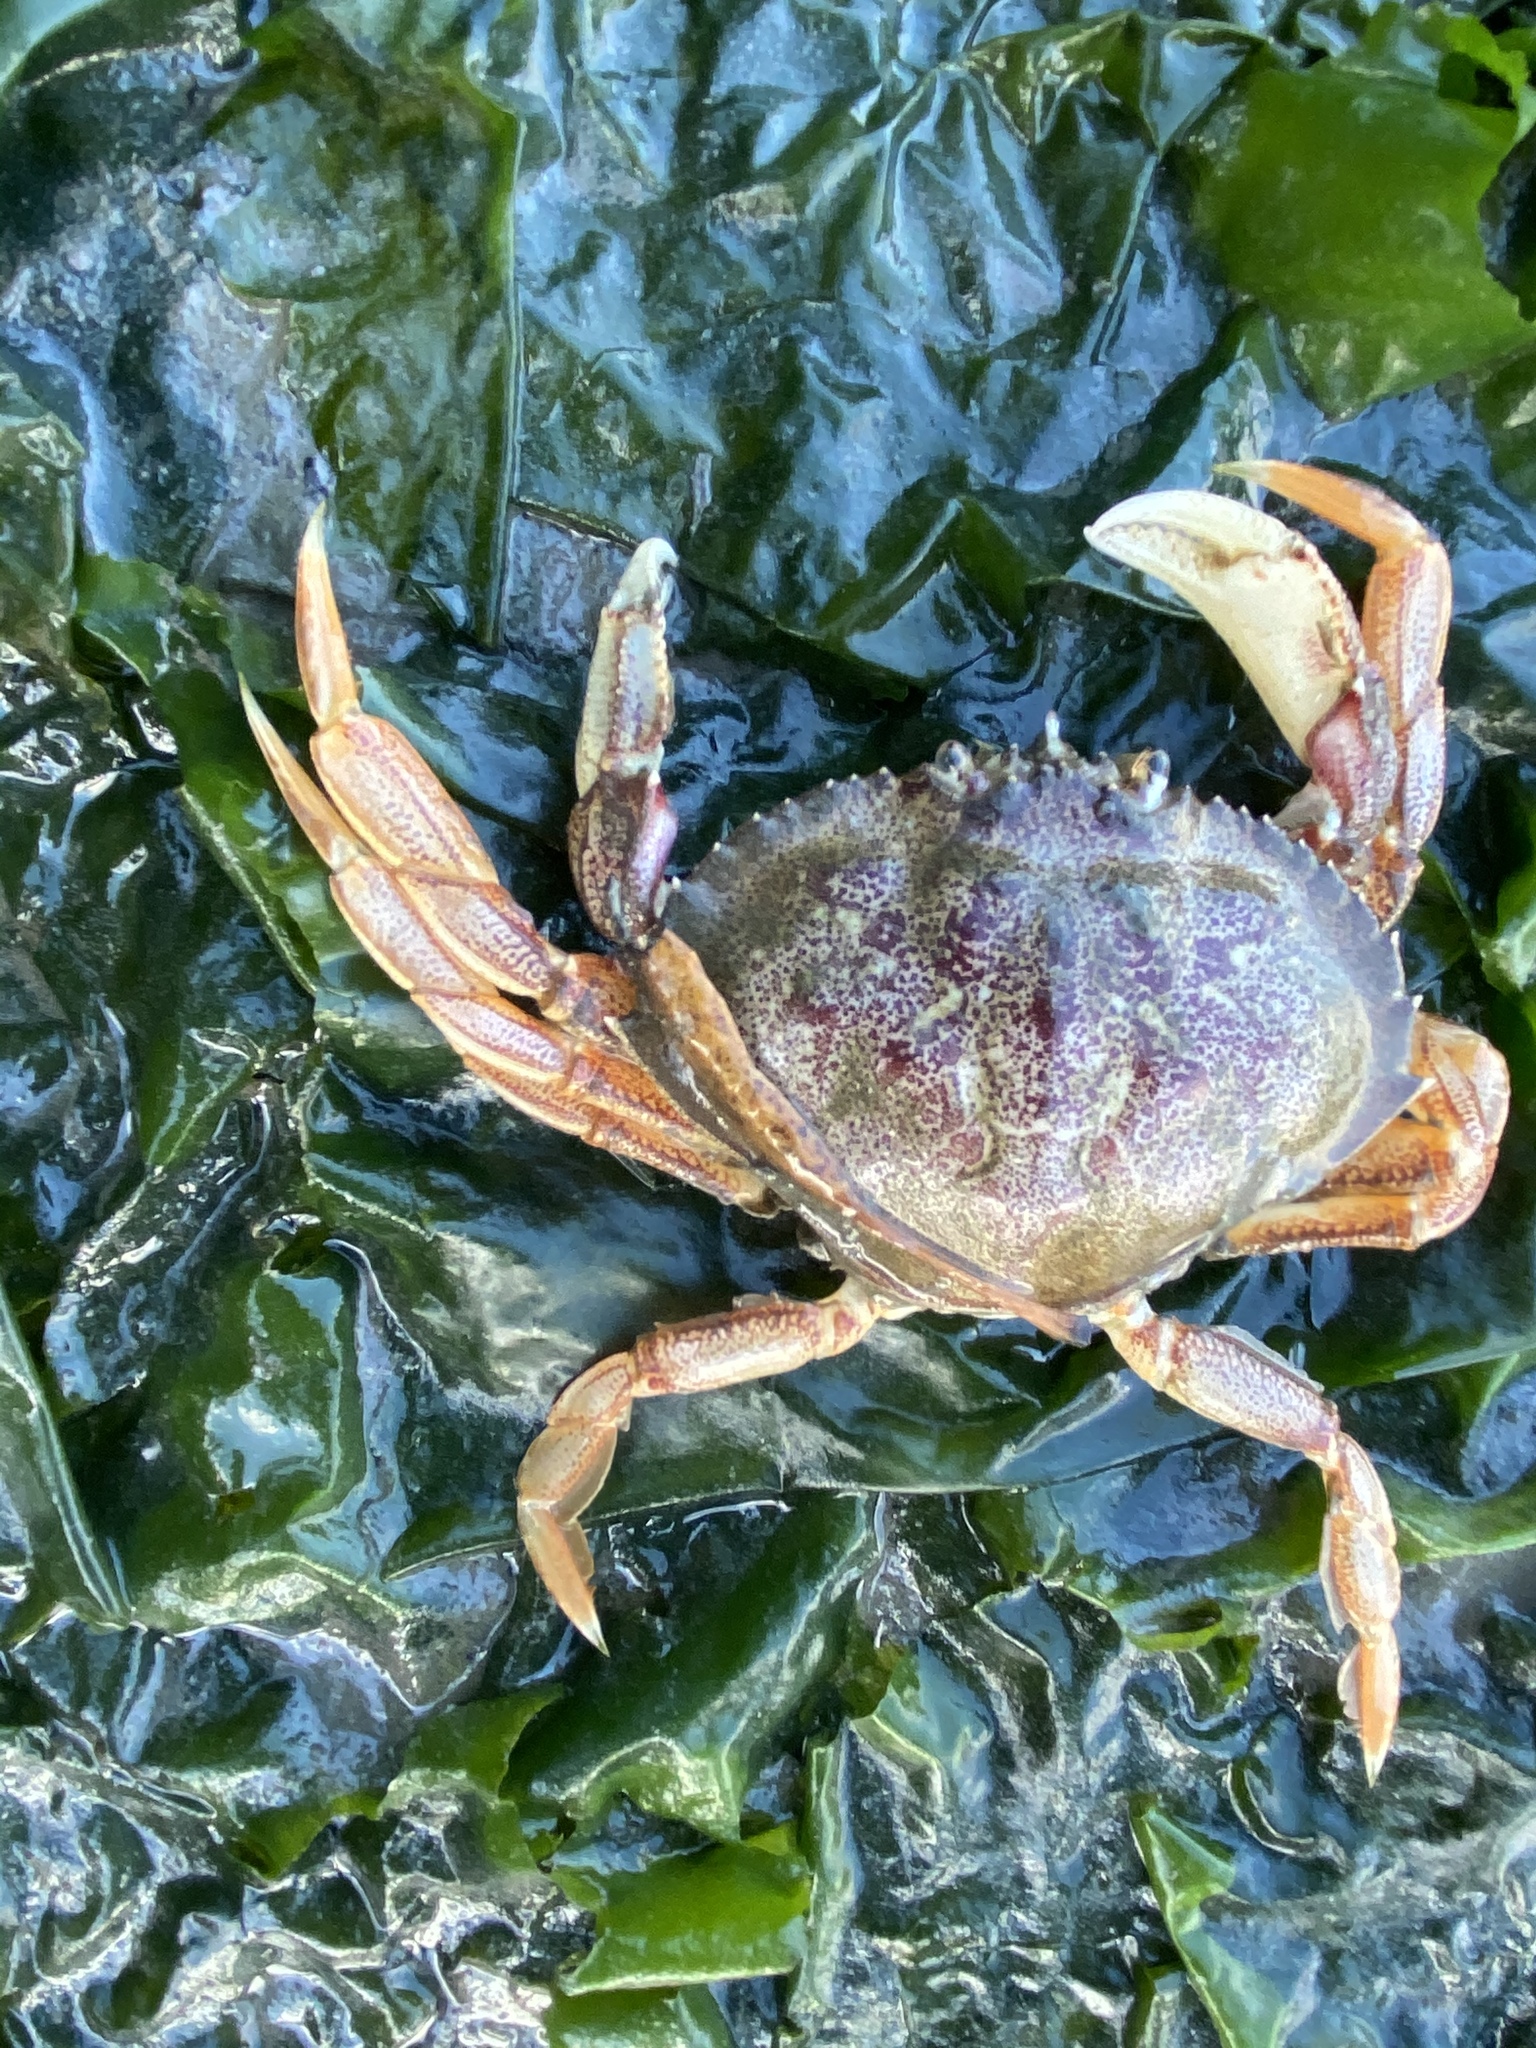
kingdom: Animalia
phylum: Arthropoda
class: Malacostraca
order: Decapoda
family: Cancridae
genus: Metacarcinus
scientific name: Metacarcinus magister
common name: Californian crab
